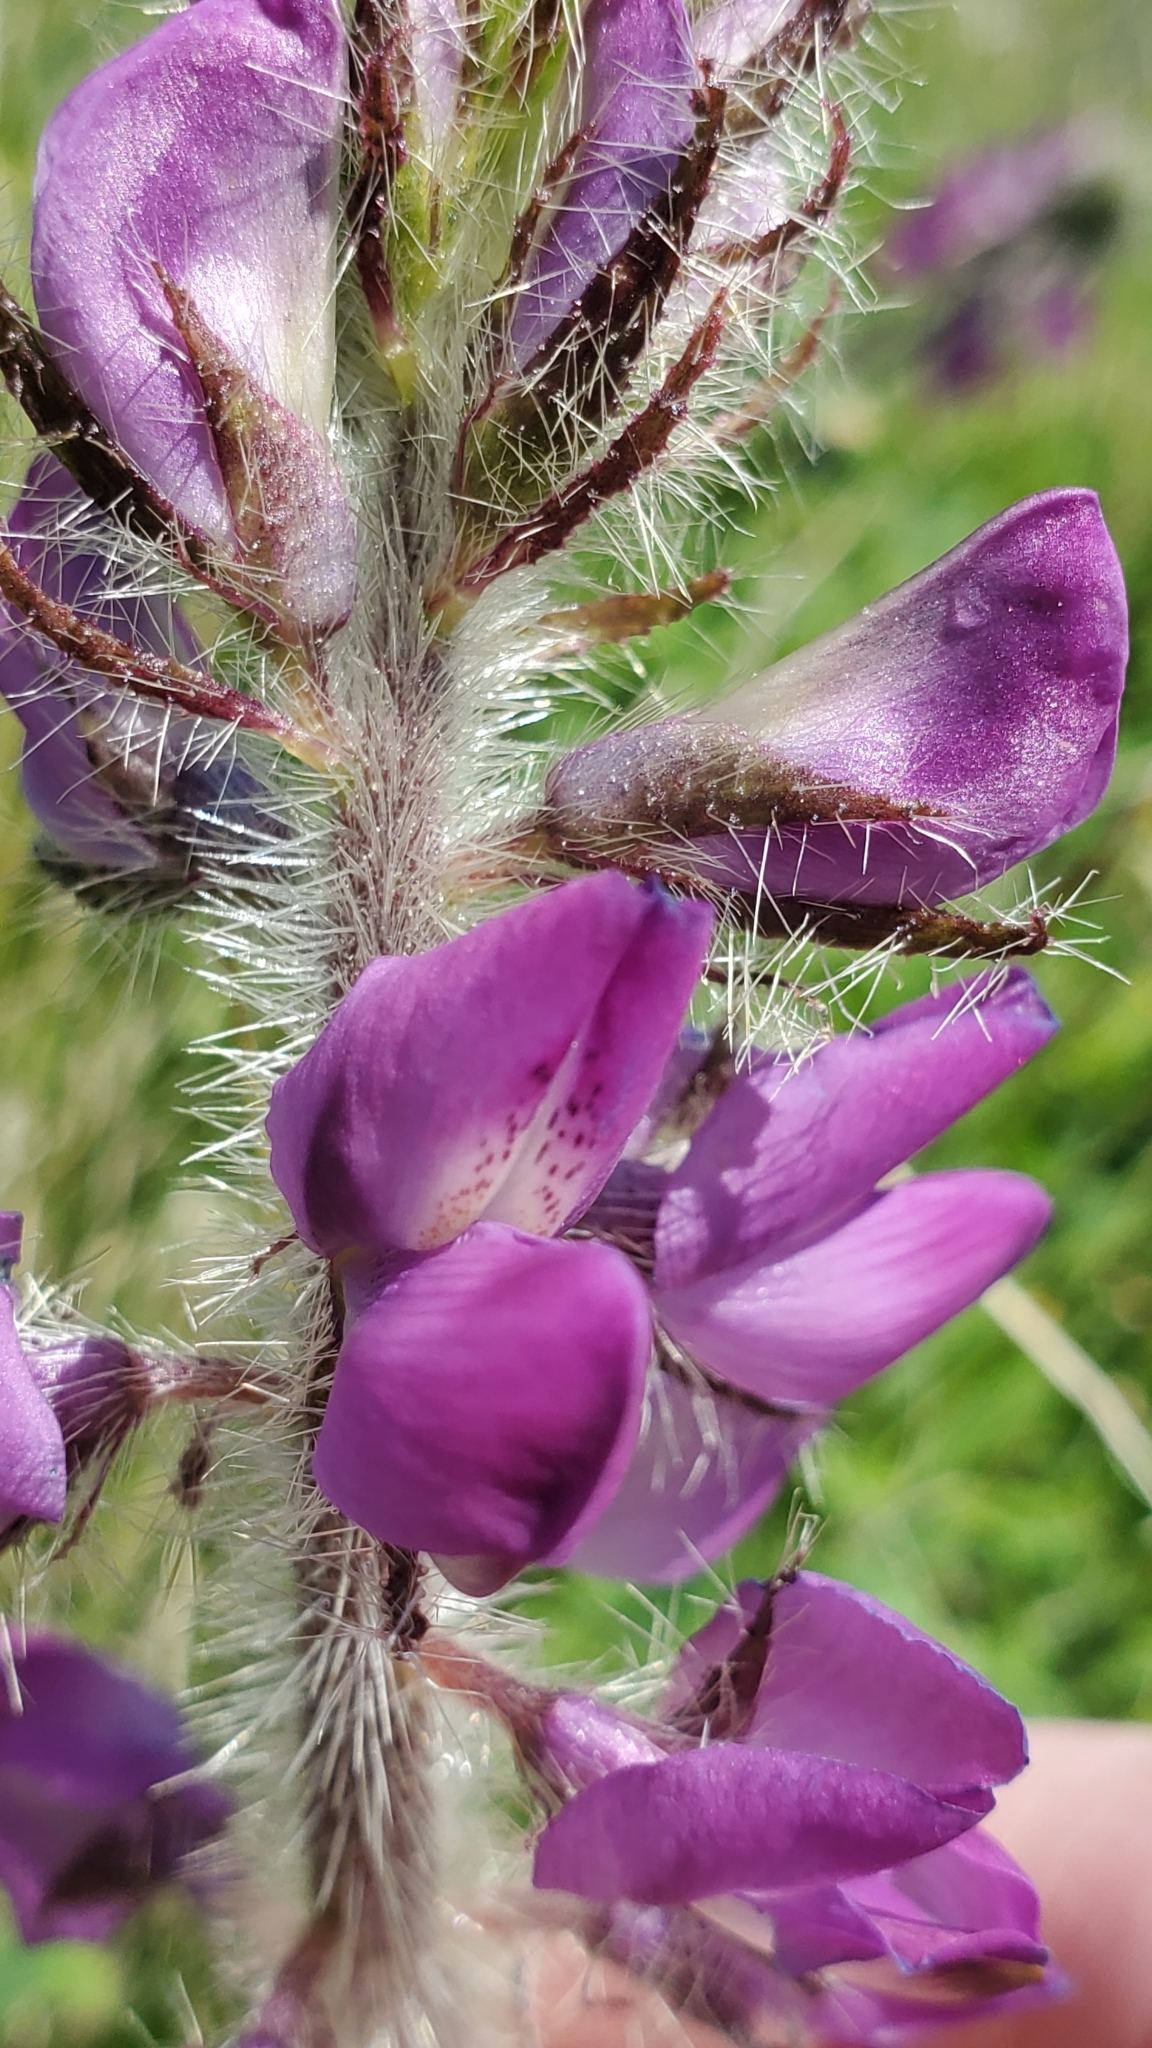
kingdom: Plantae
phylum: Tracheophyta
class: Magnoliopsida
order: Fabales
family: Fabaceae
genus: Lupinus
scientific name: Lupinus hirsutissimus
